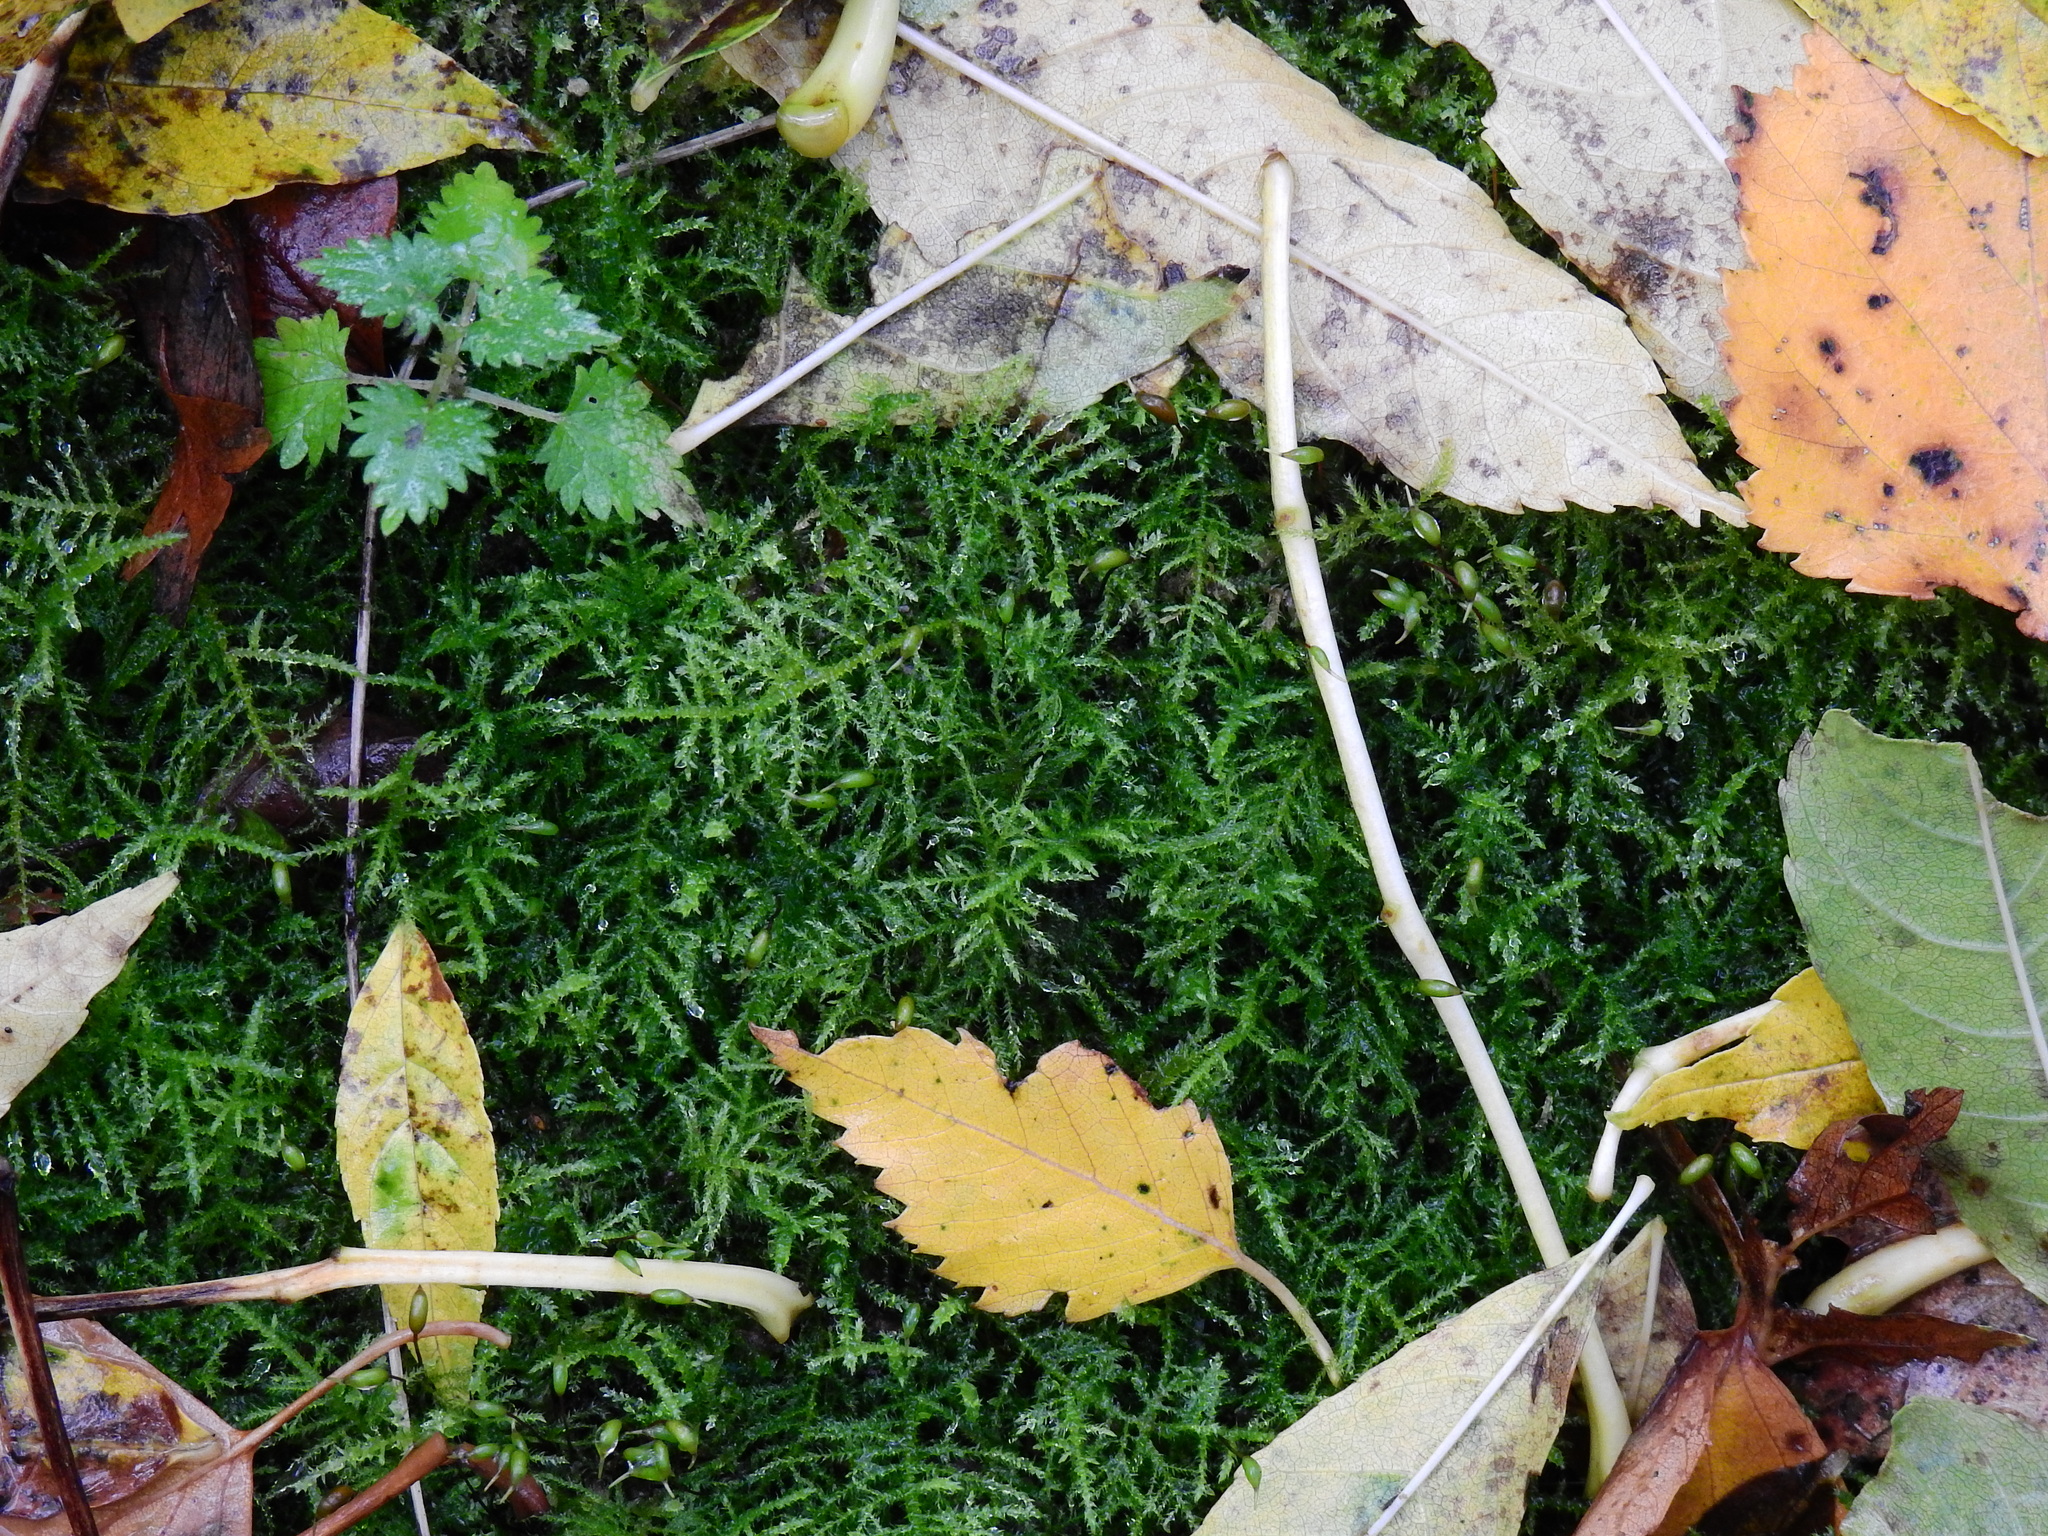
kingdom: Plantae
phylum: Bryophyta
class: Bryopsida
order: Hypnales
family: Brachytheciaceae
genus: Kindbergia
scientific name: Kindbergia praelonga
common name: Slender beaked moss
